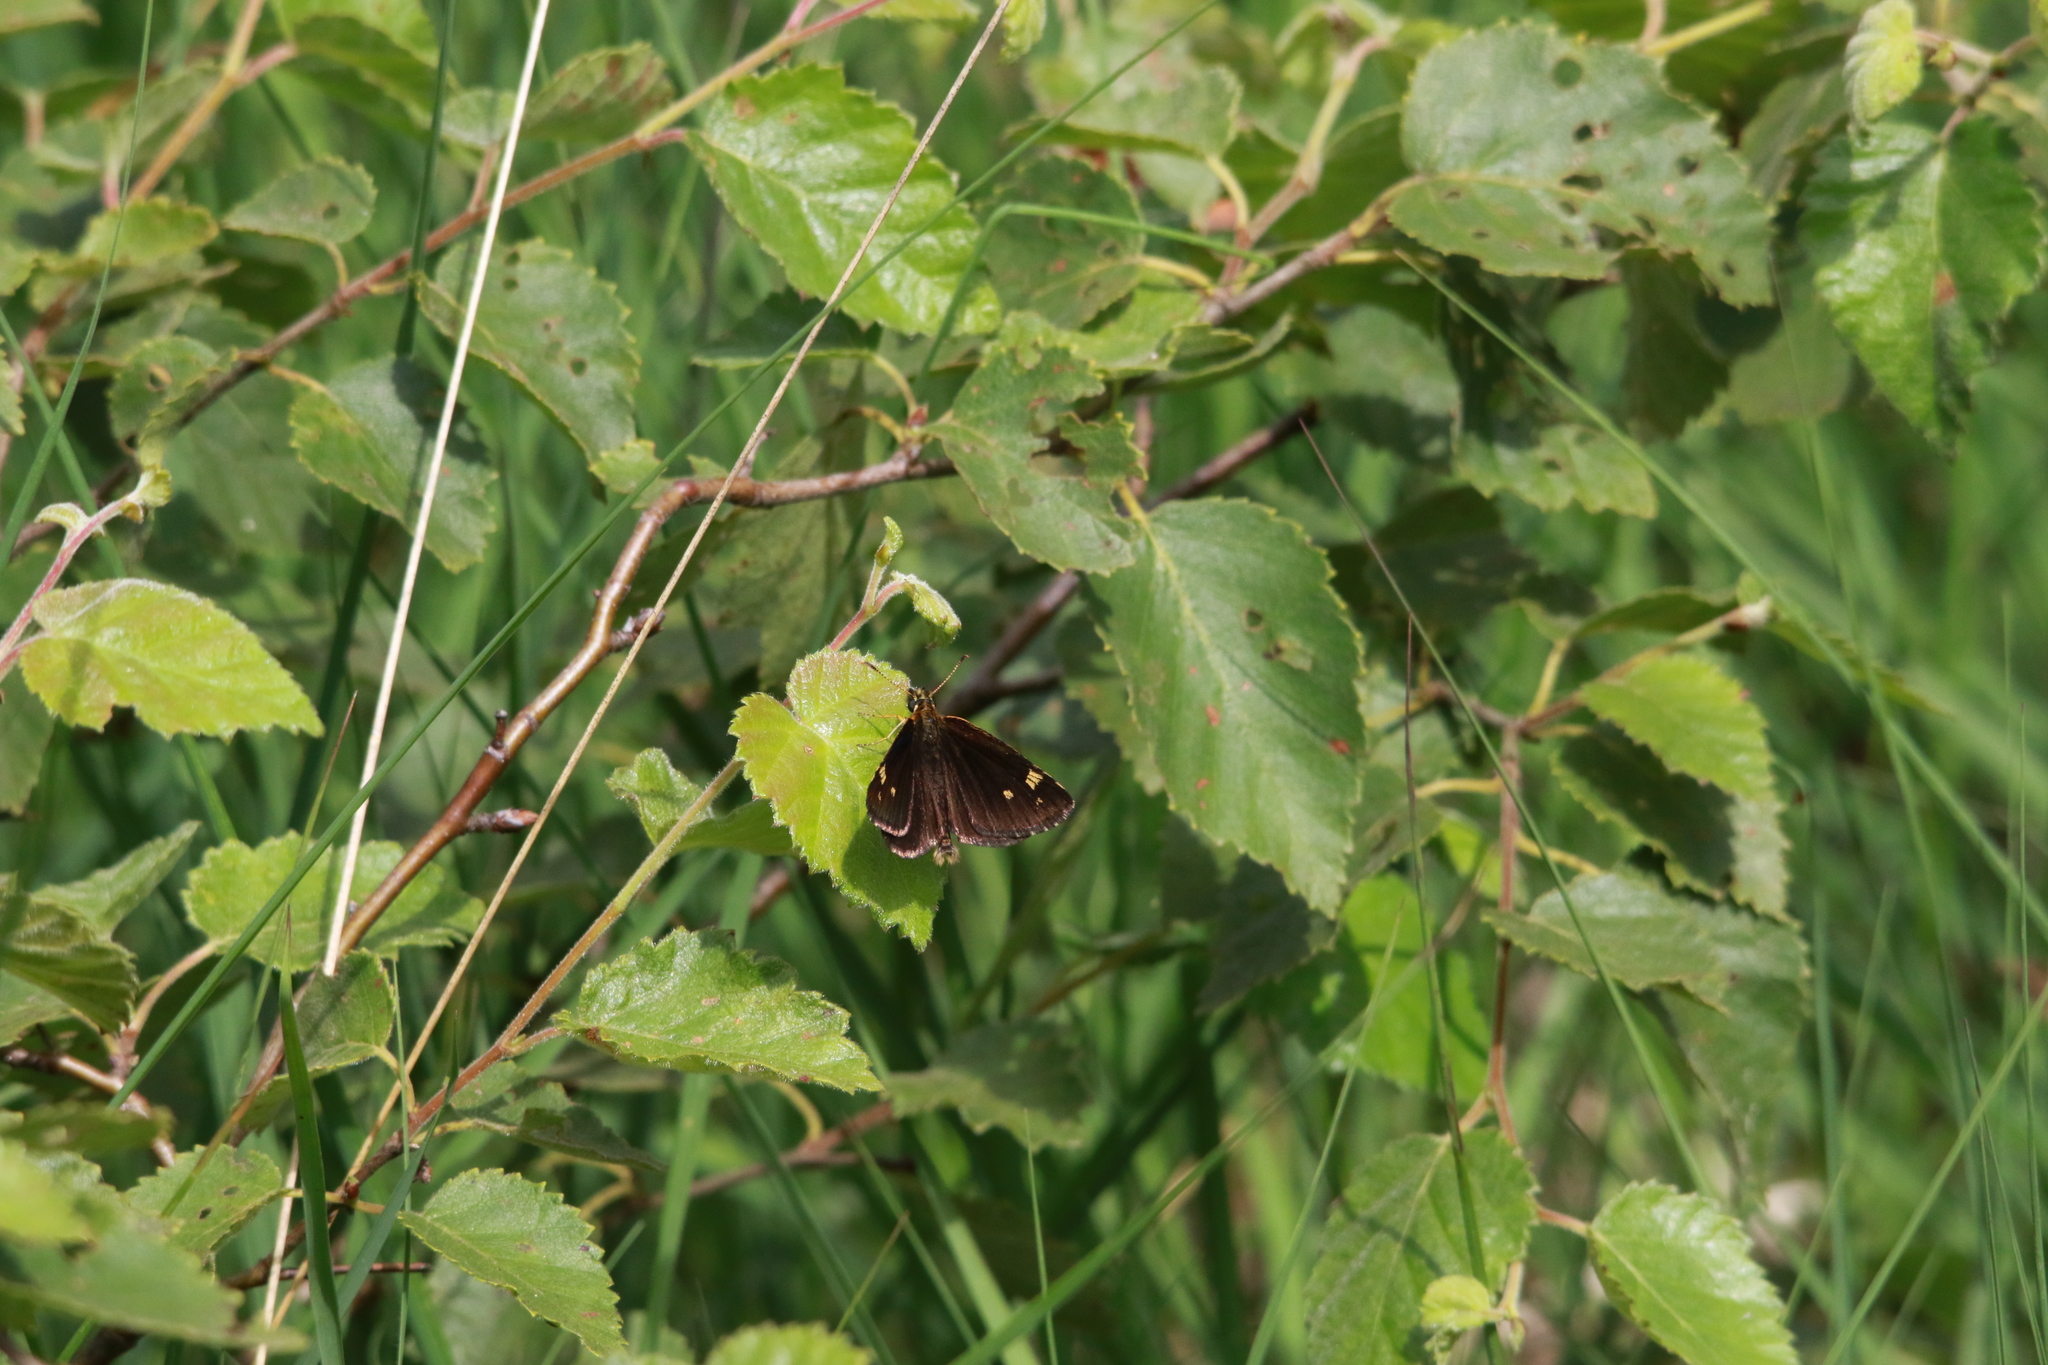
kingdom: Animalia
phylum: Arthropoda
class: Insecta
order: Lepidoptera
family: Hesperiidae
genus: Heteropterus
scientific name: Heteropterus morpheus
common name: Large chequered skipper
